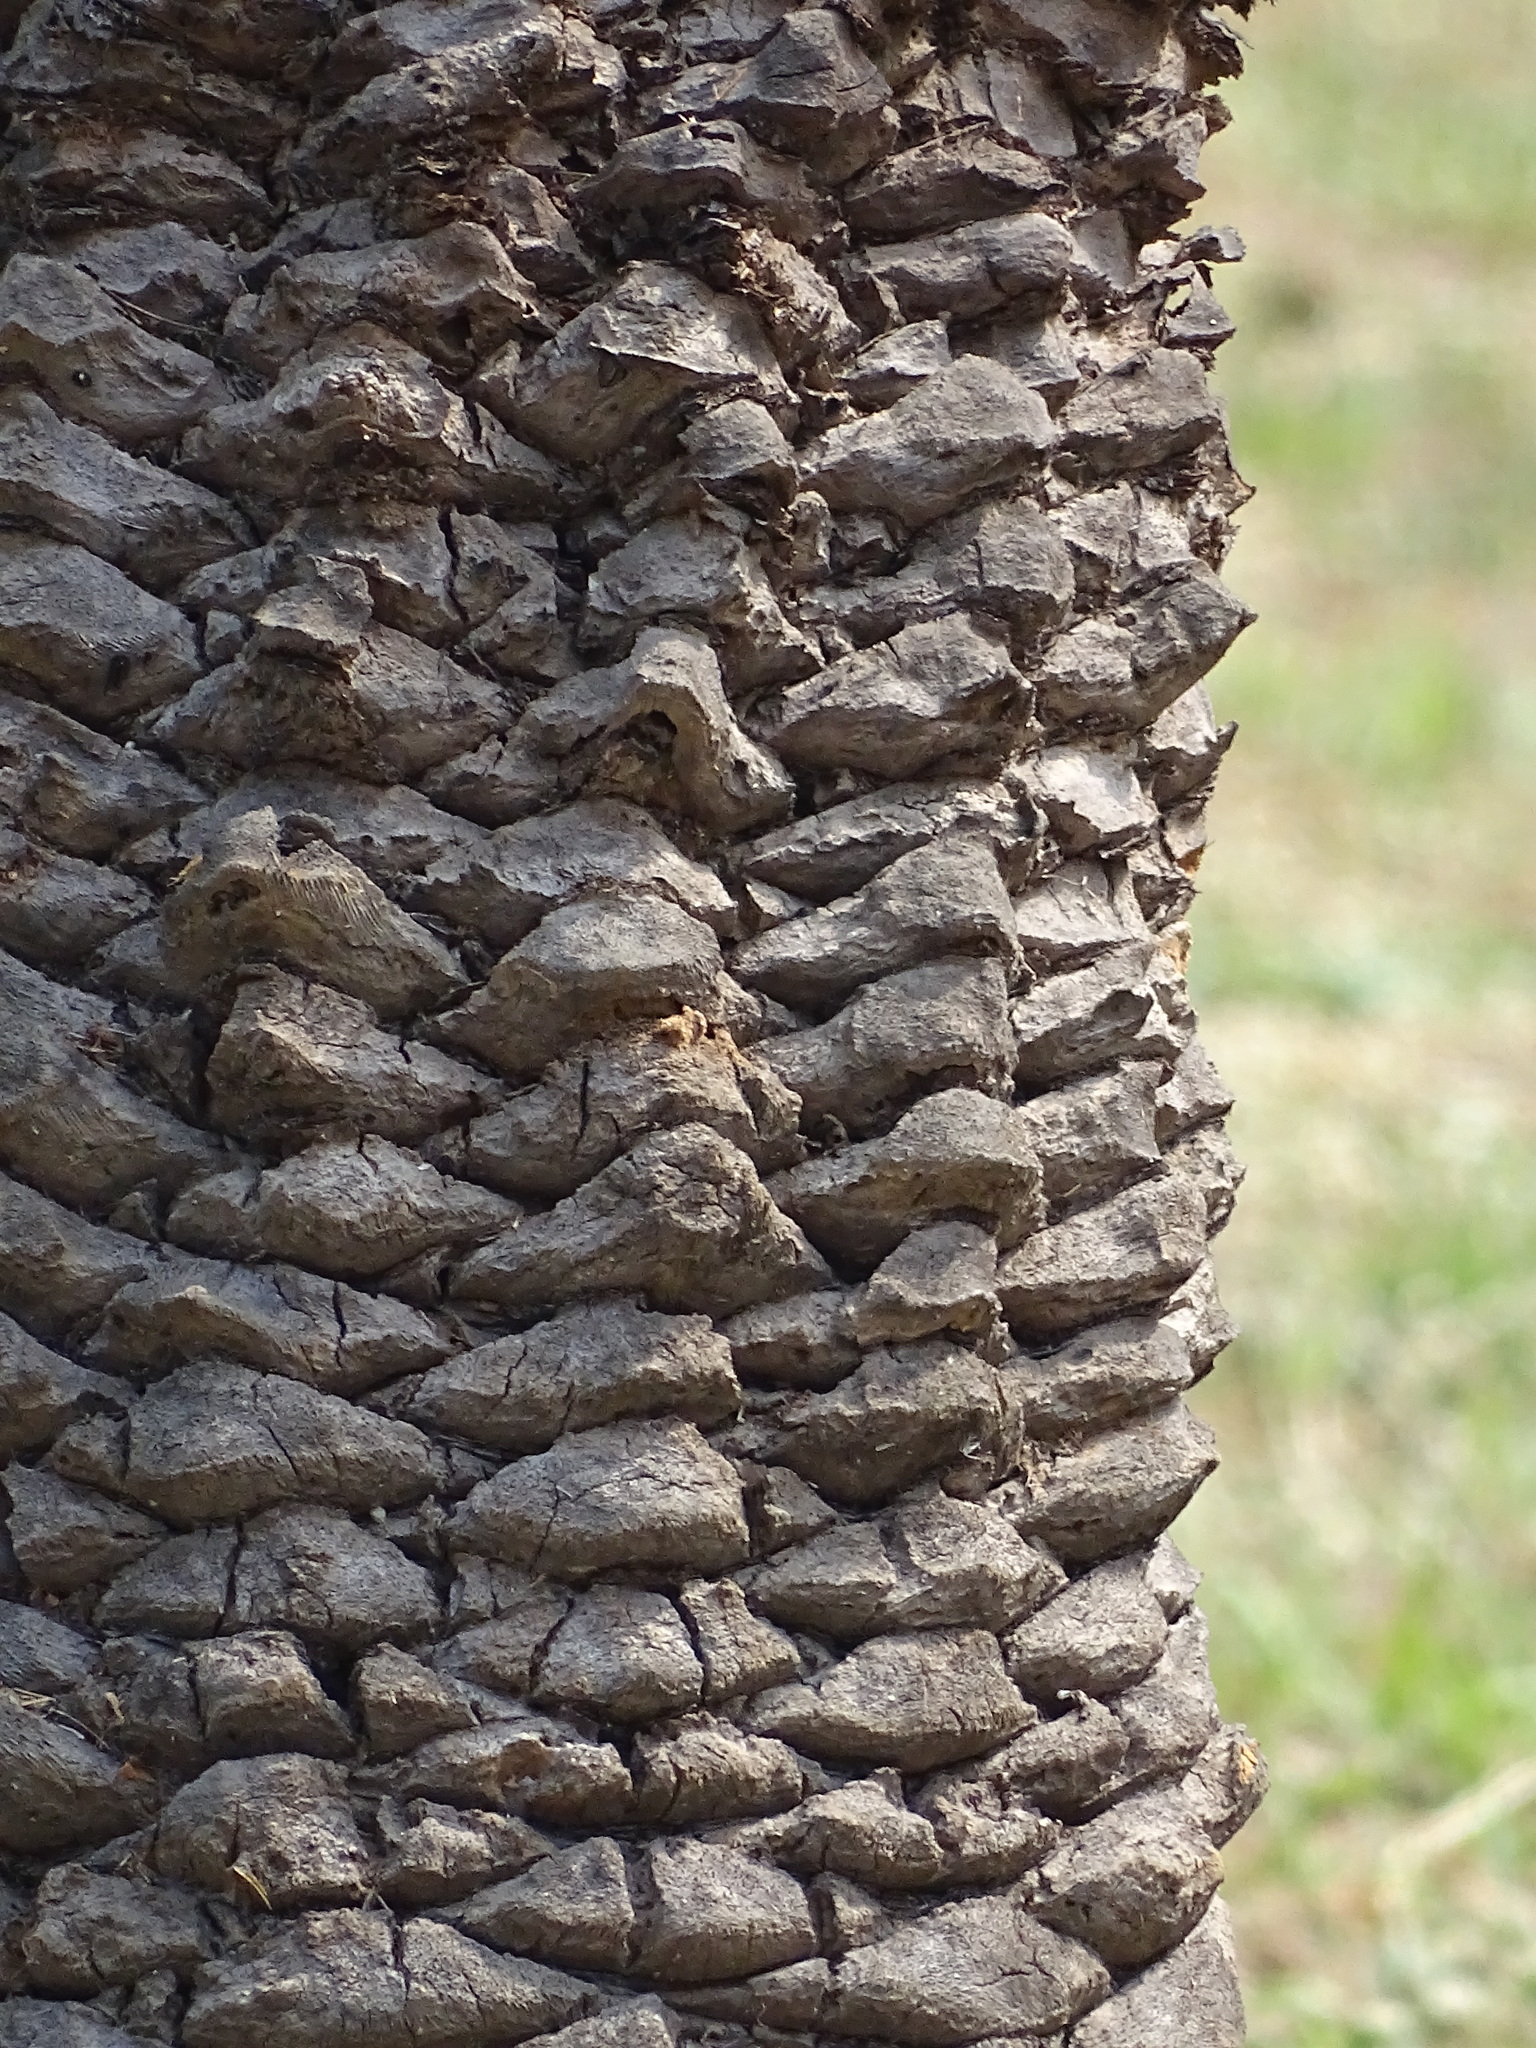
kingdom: Plantae
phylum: Tracheophyta
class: Liliopsida
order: Arecales
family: Arecaceae
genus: Phoenix
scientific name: Phoenix loureiroi
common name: Loureiro's palm
